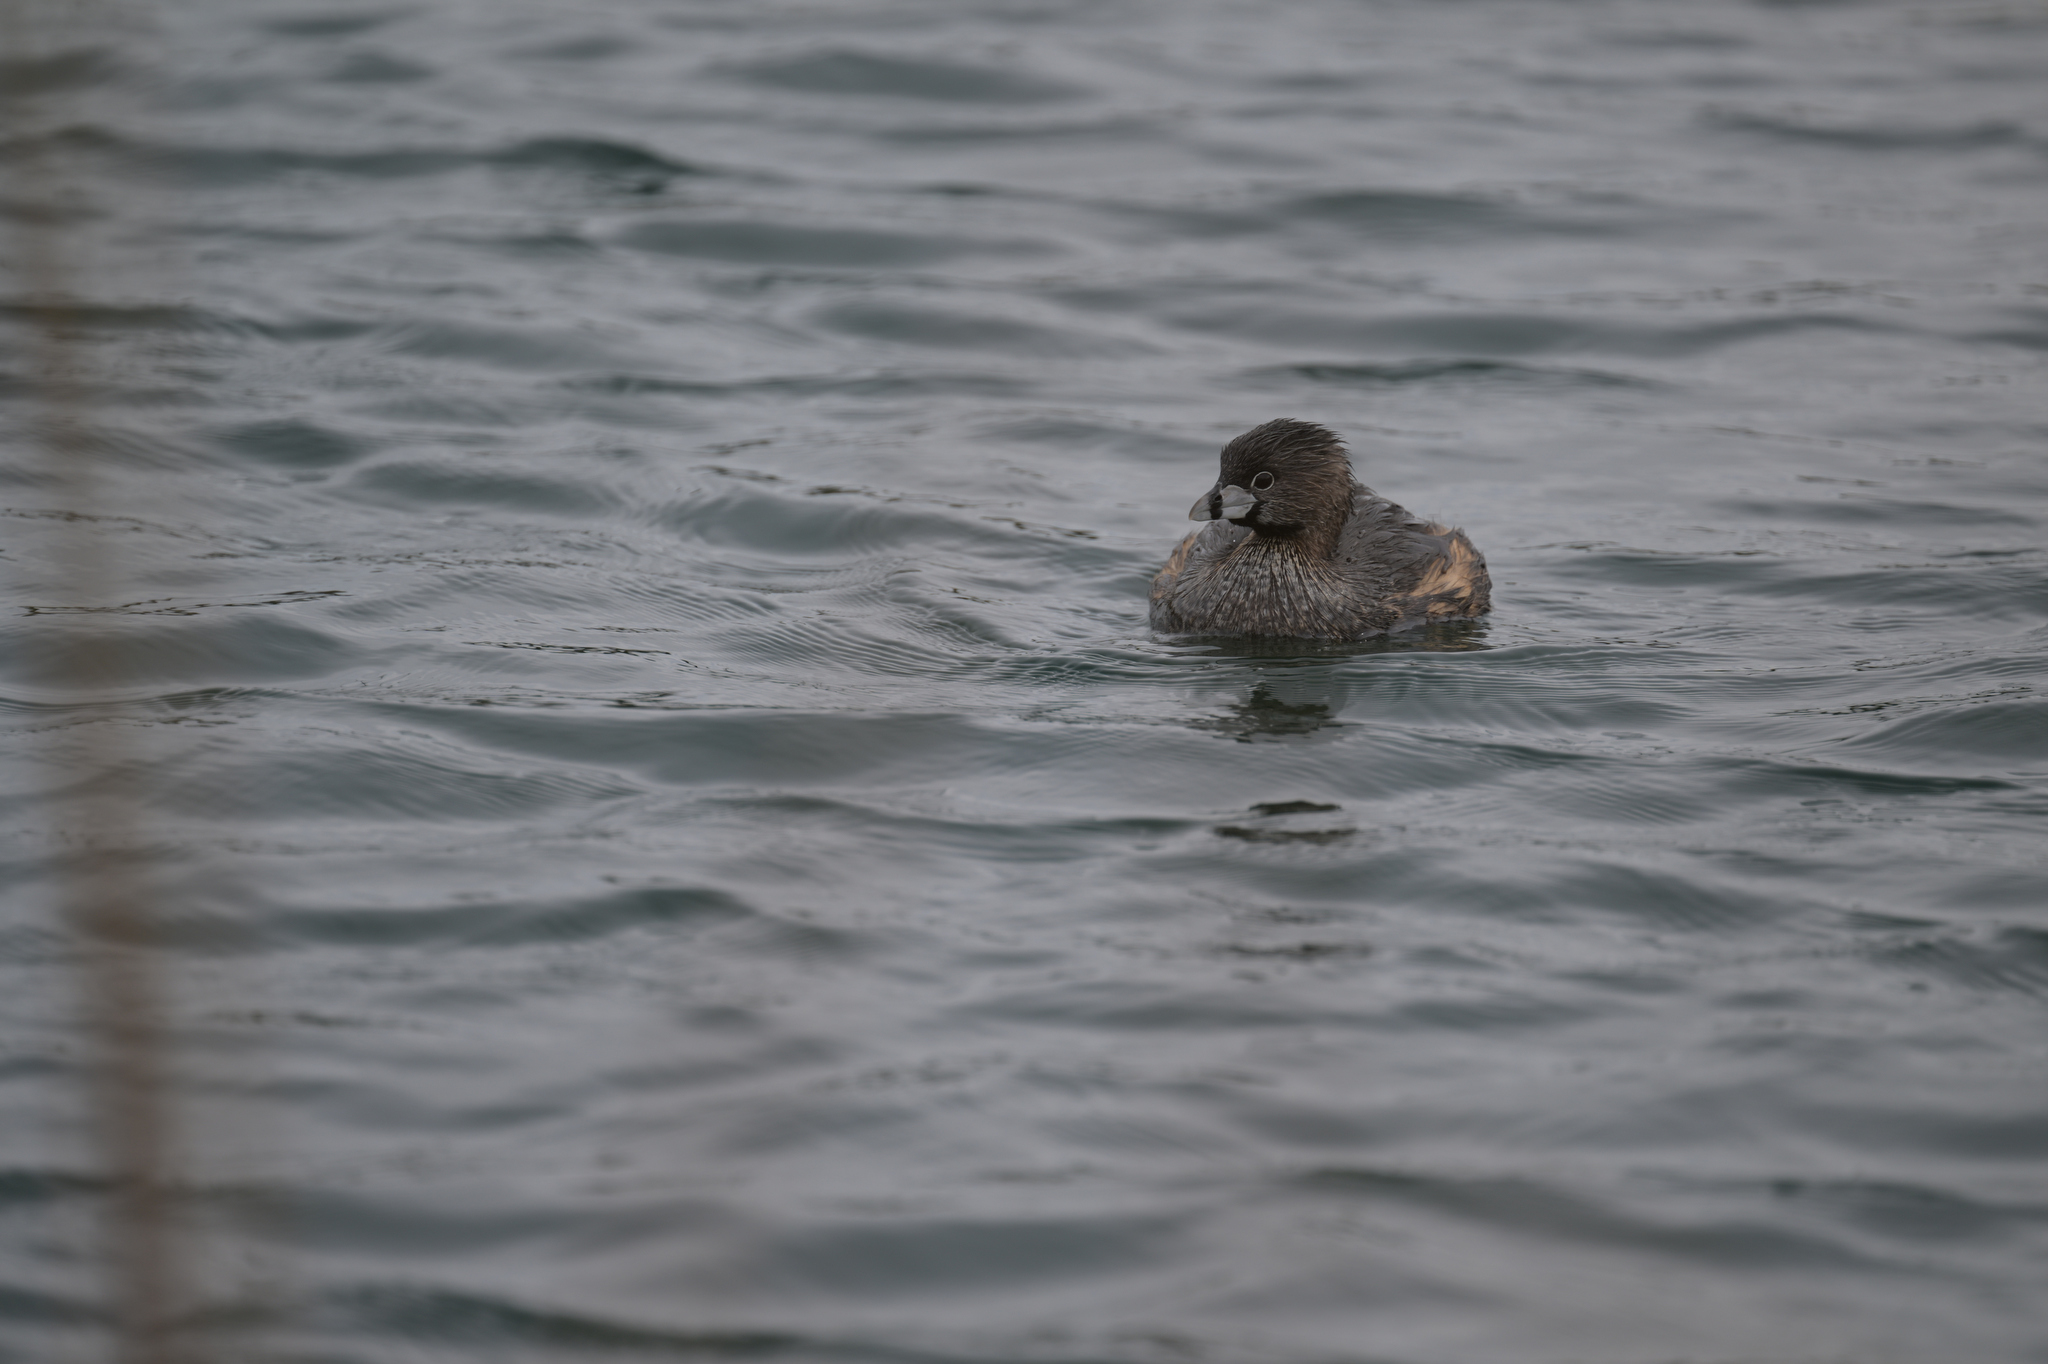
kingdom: Animalia
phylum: Chordata
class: Aves
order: Podicipediformes
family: Podicipedidae
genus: Podilymbus
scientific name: Podilymbus podiceps
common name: Pied-billed grebe
